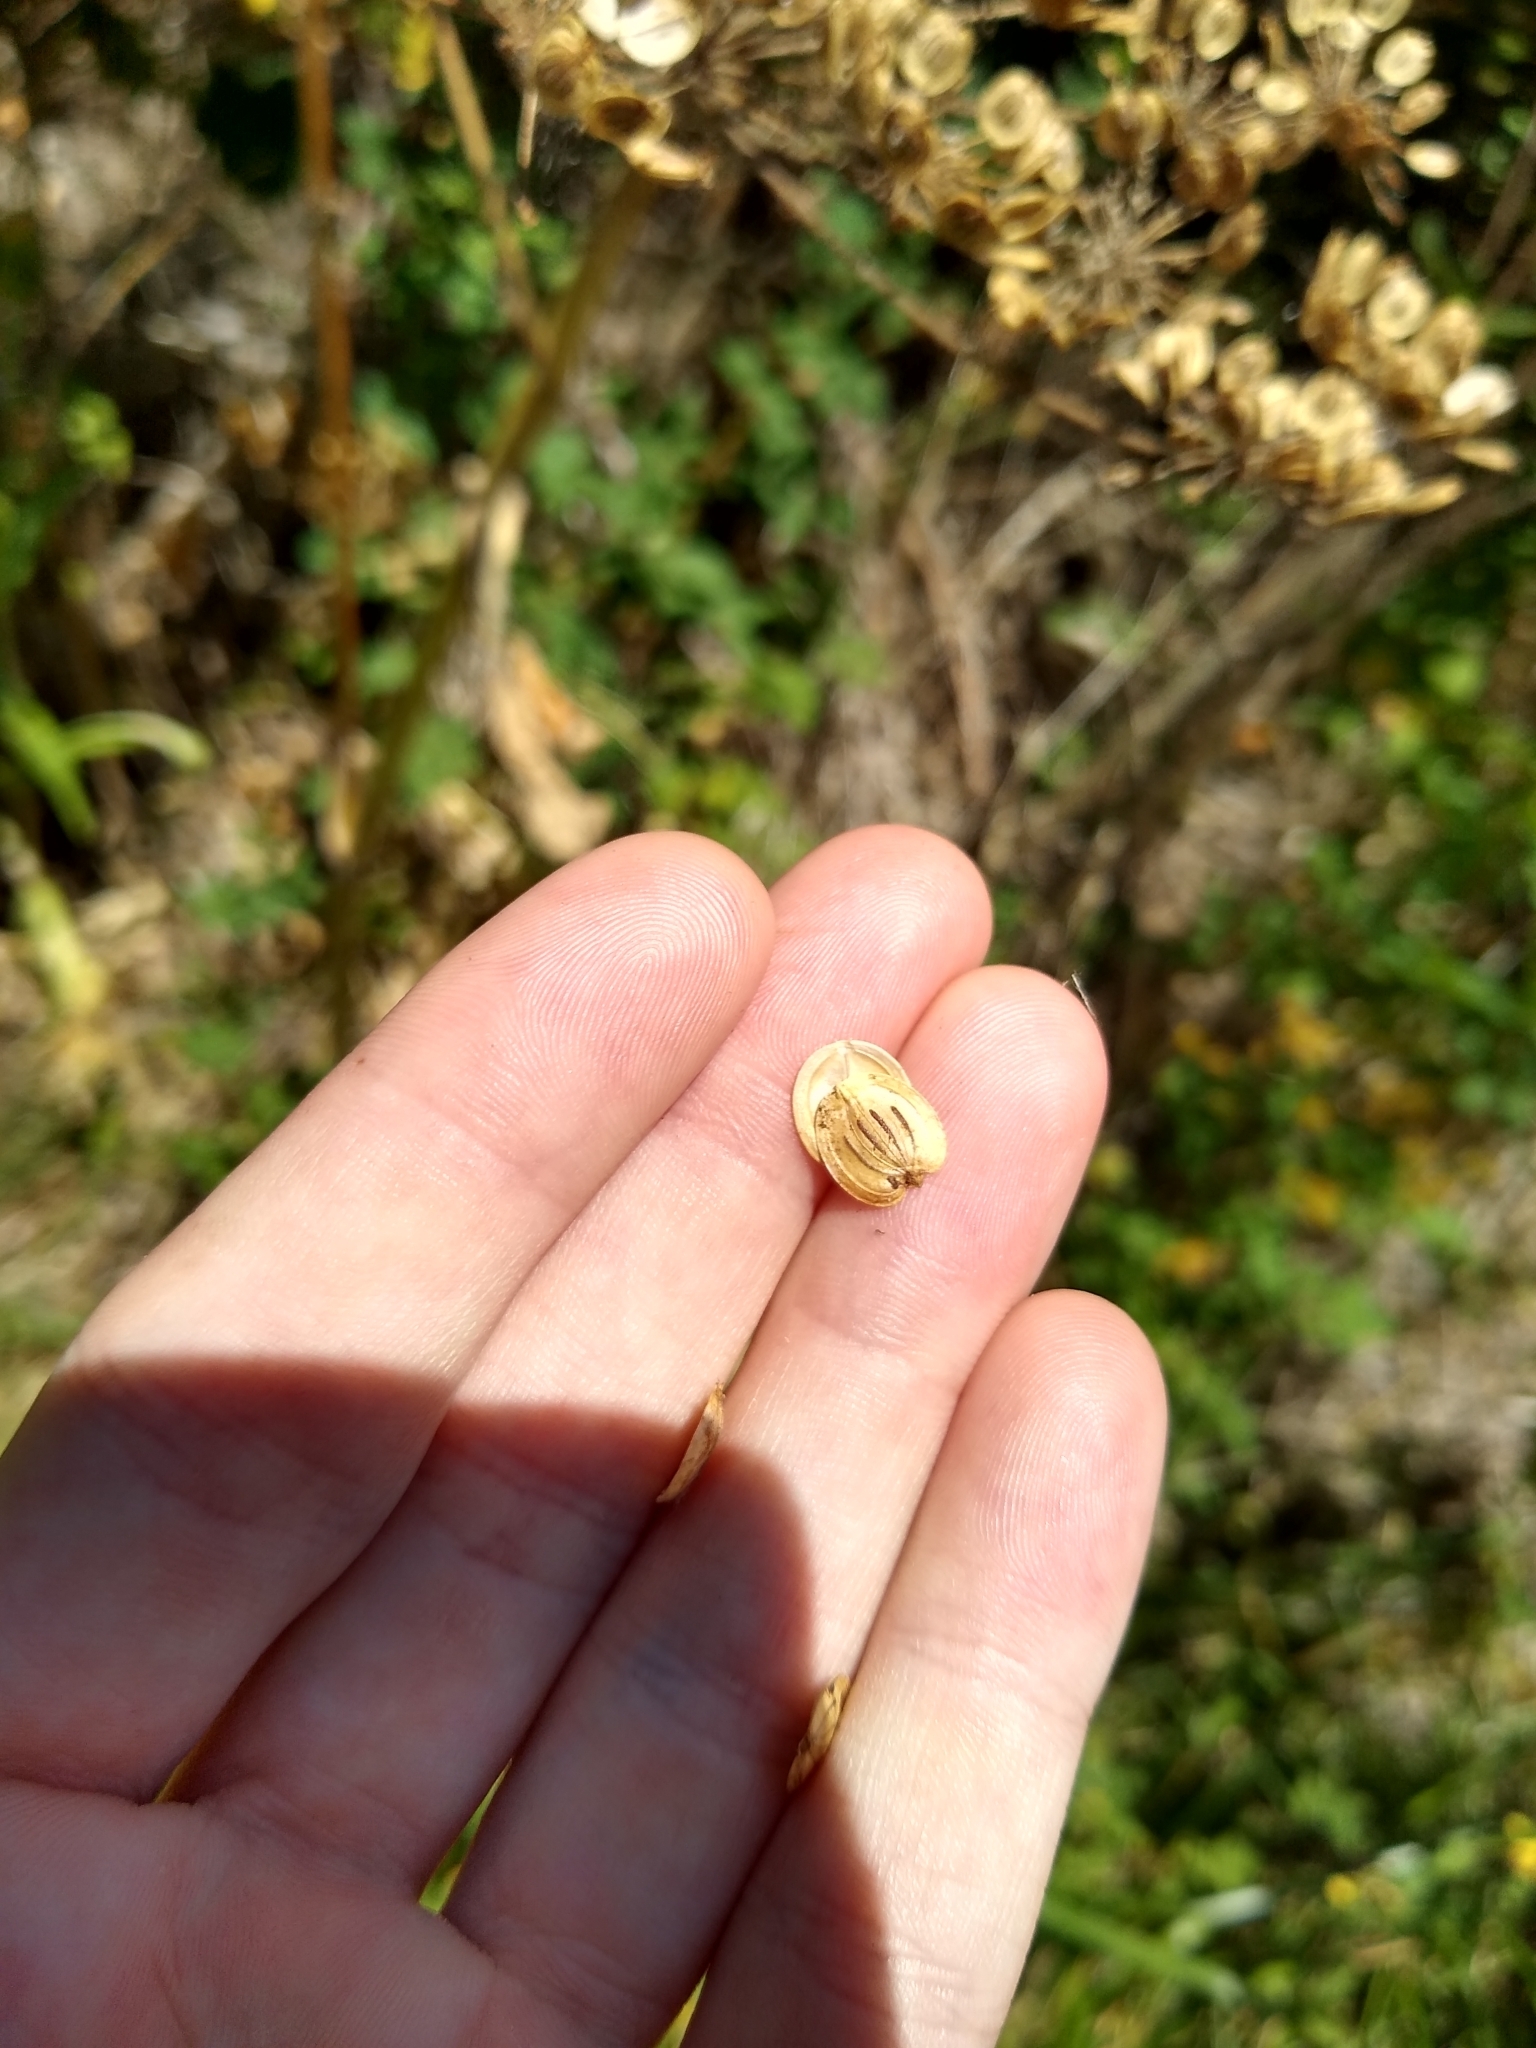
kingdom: Plantae
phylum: Tracheophyta
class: Magnoliopsida
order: Apiales
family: Apiaceae
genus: Heracleum
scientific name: Heracleum maximum
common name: American cow parsnip
